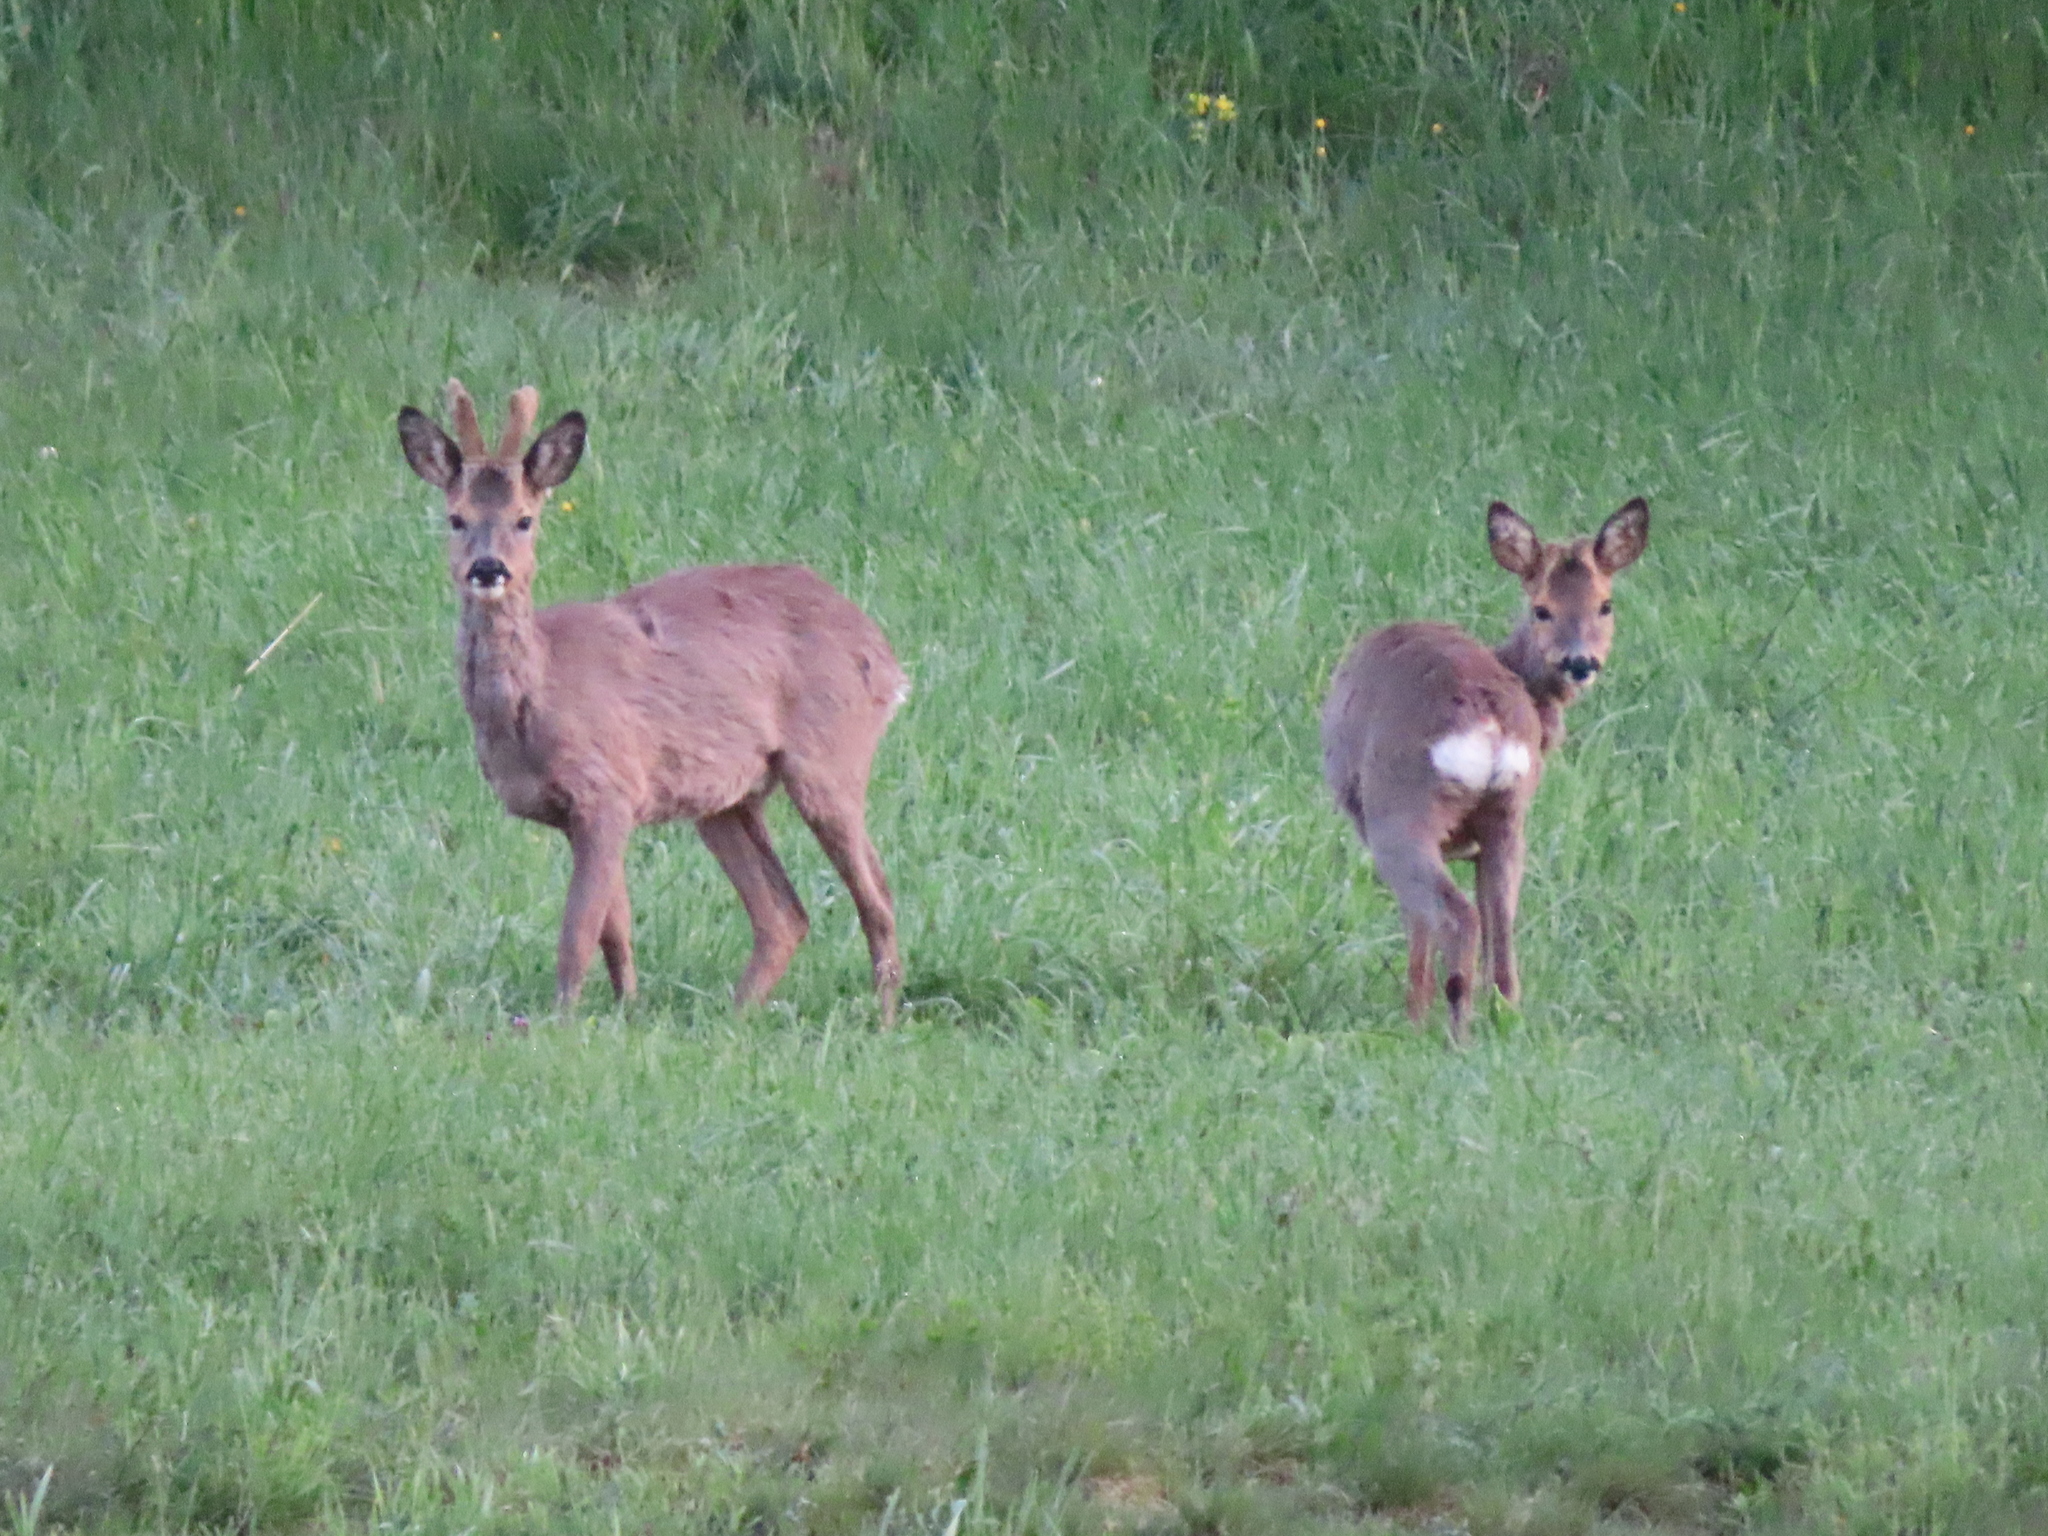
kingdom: Animalia
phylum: Chordata
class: Mammalia
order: Artiodactyla
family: Cervidae
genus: Capreolus
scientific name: Capreolus capreolus
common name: Western roe deer
